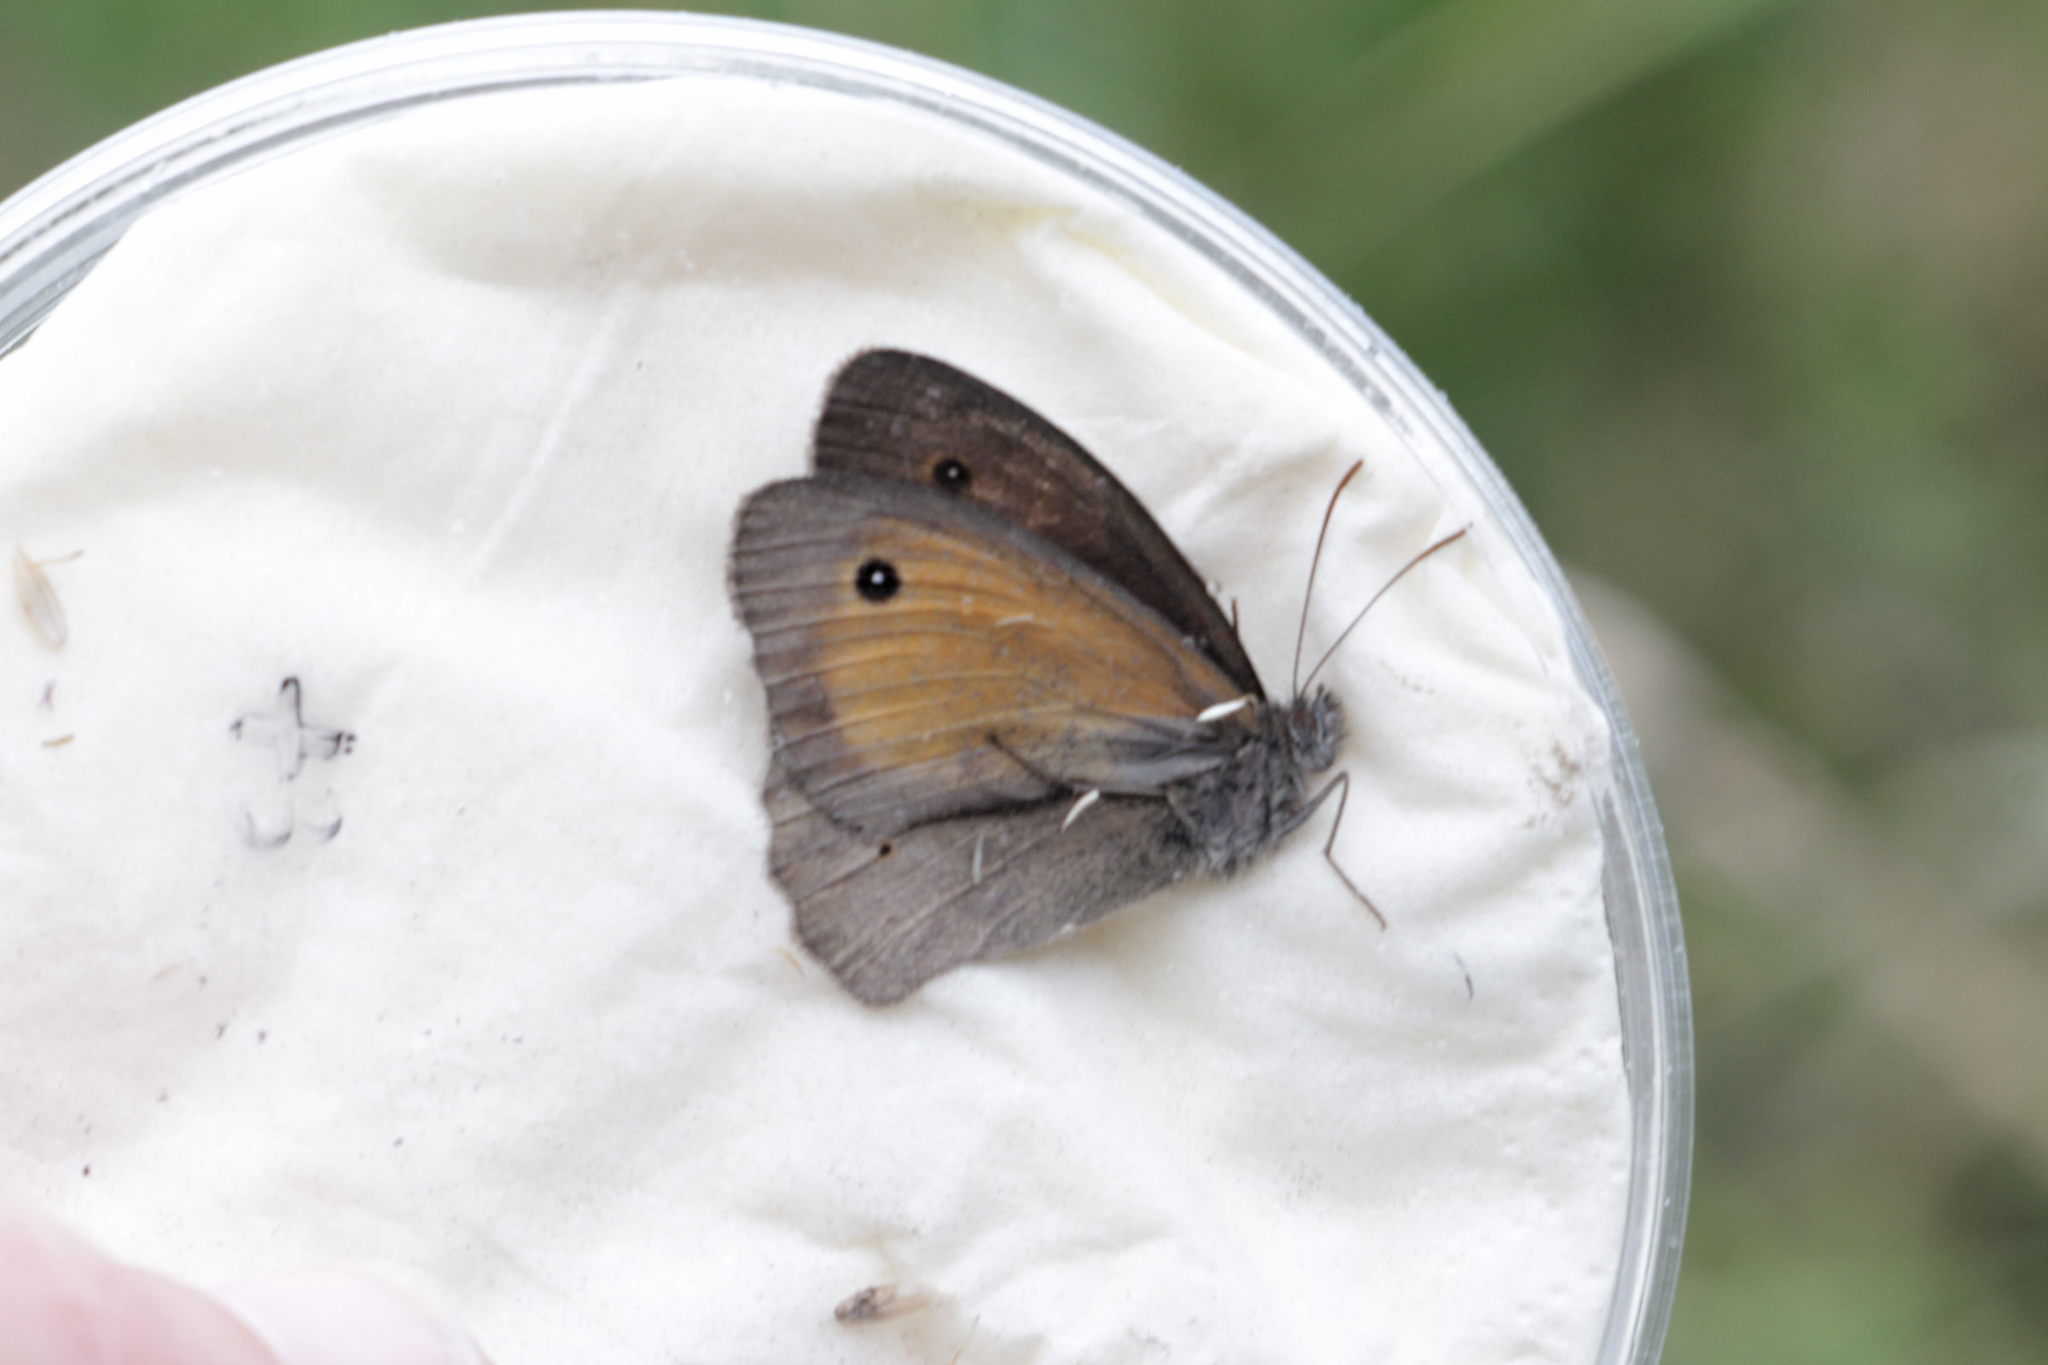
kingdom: Animalia
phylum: Arthropoda
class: Insecta
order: Lepidoptera
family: Nymphalidae
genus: Maniola
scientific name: Maniola jurtina
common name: Meadow brown
